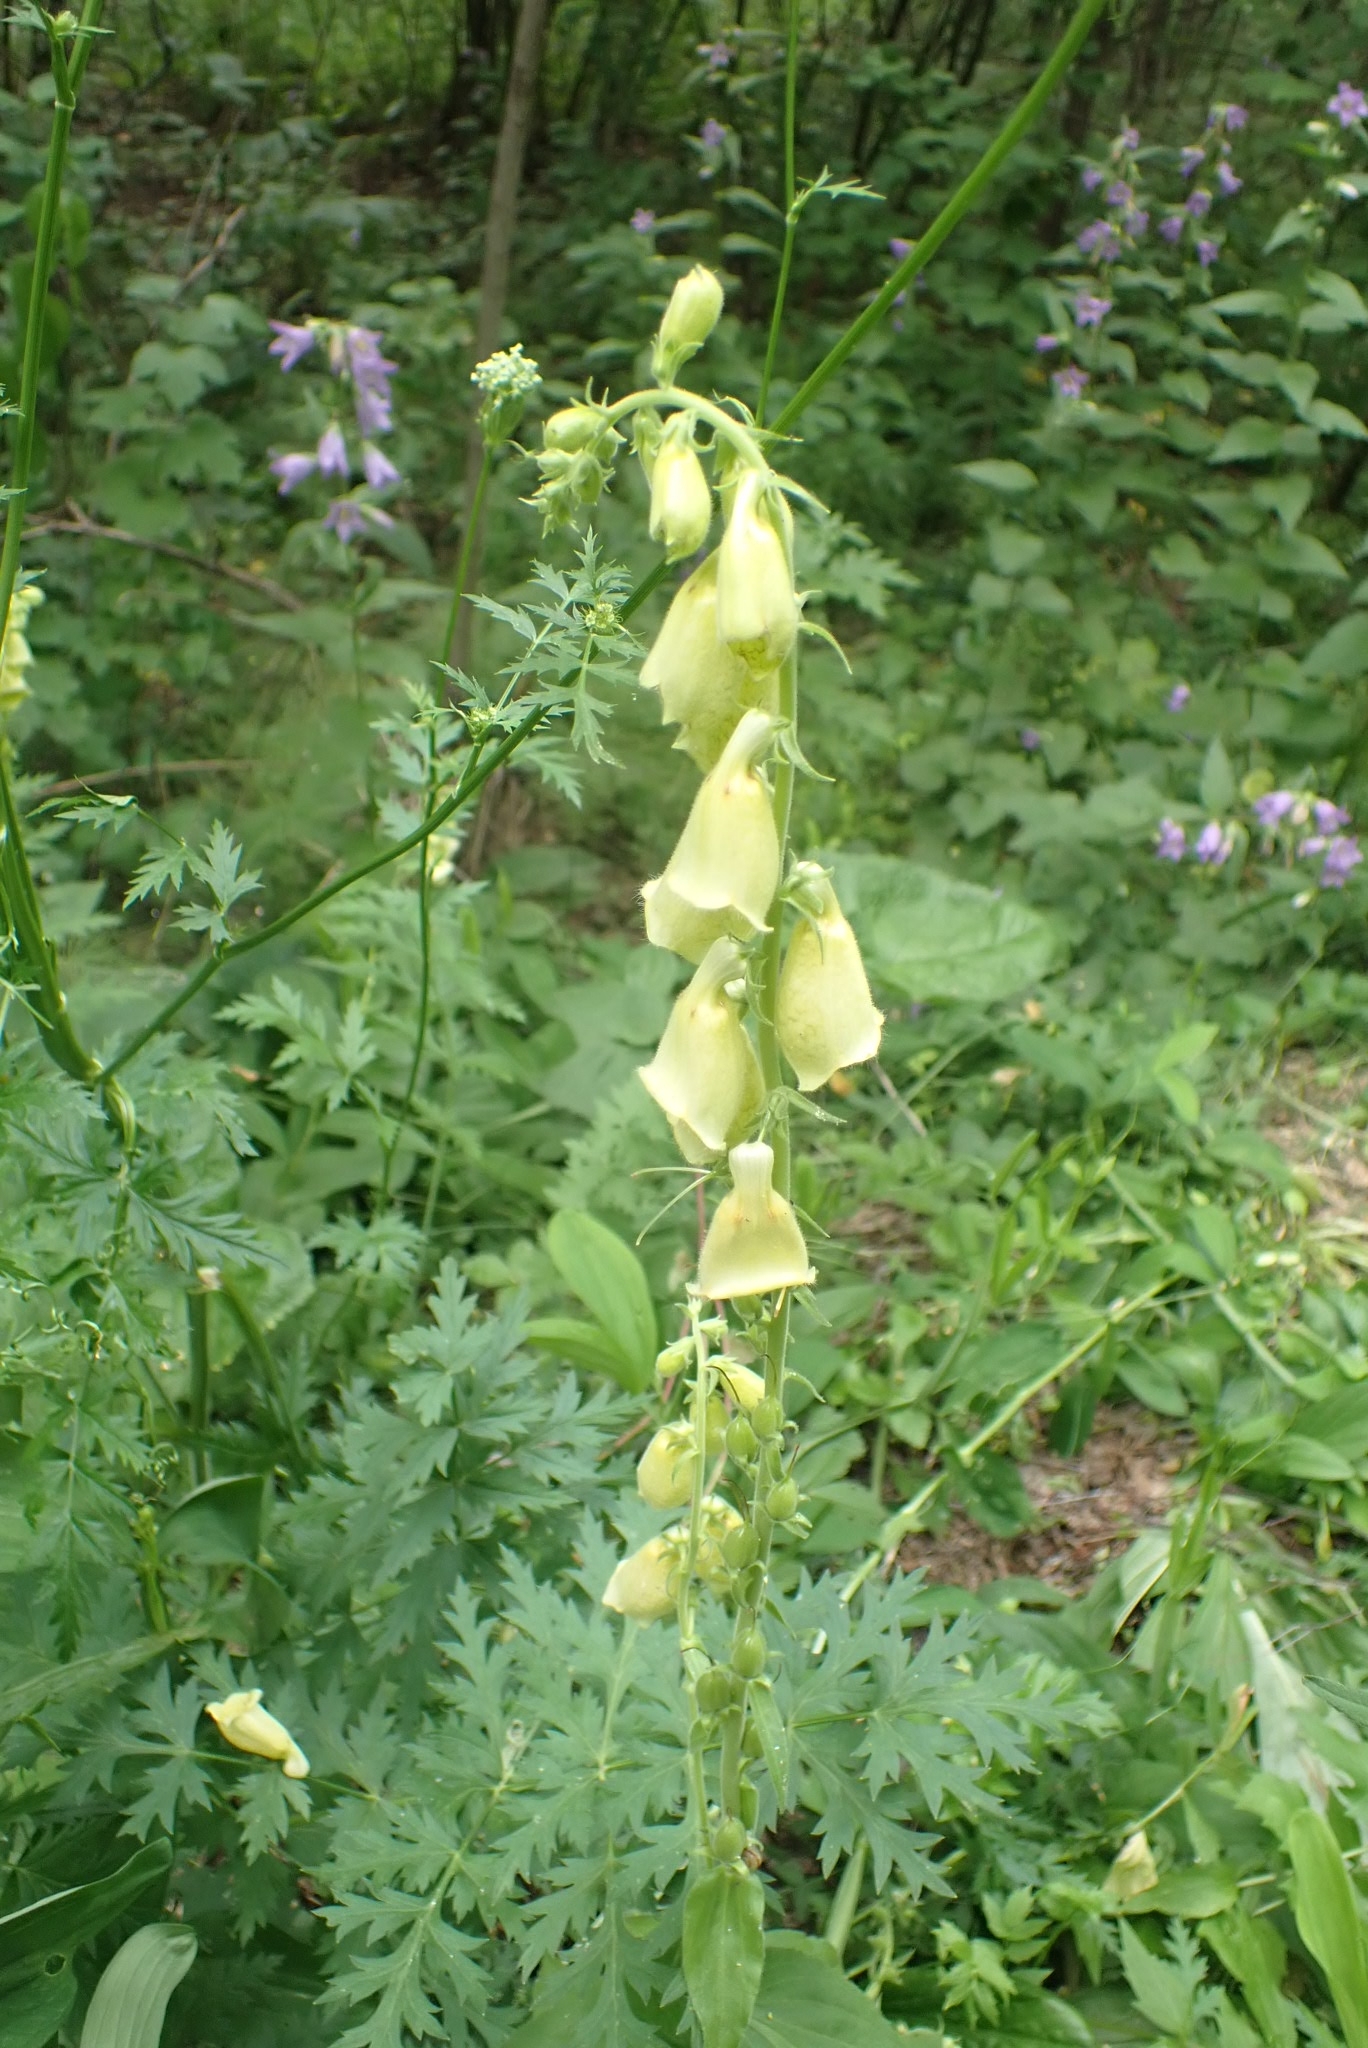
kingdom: Plantae
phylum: Tracheophyta
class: Magnoliopsida
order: Lamiales
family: Plantaginaceae
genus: Digitalis
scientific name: Digitalis grandiflora
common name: Yellow foxglove
